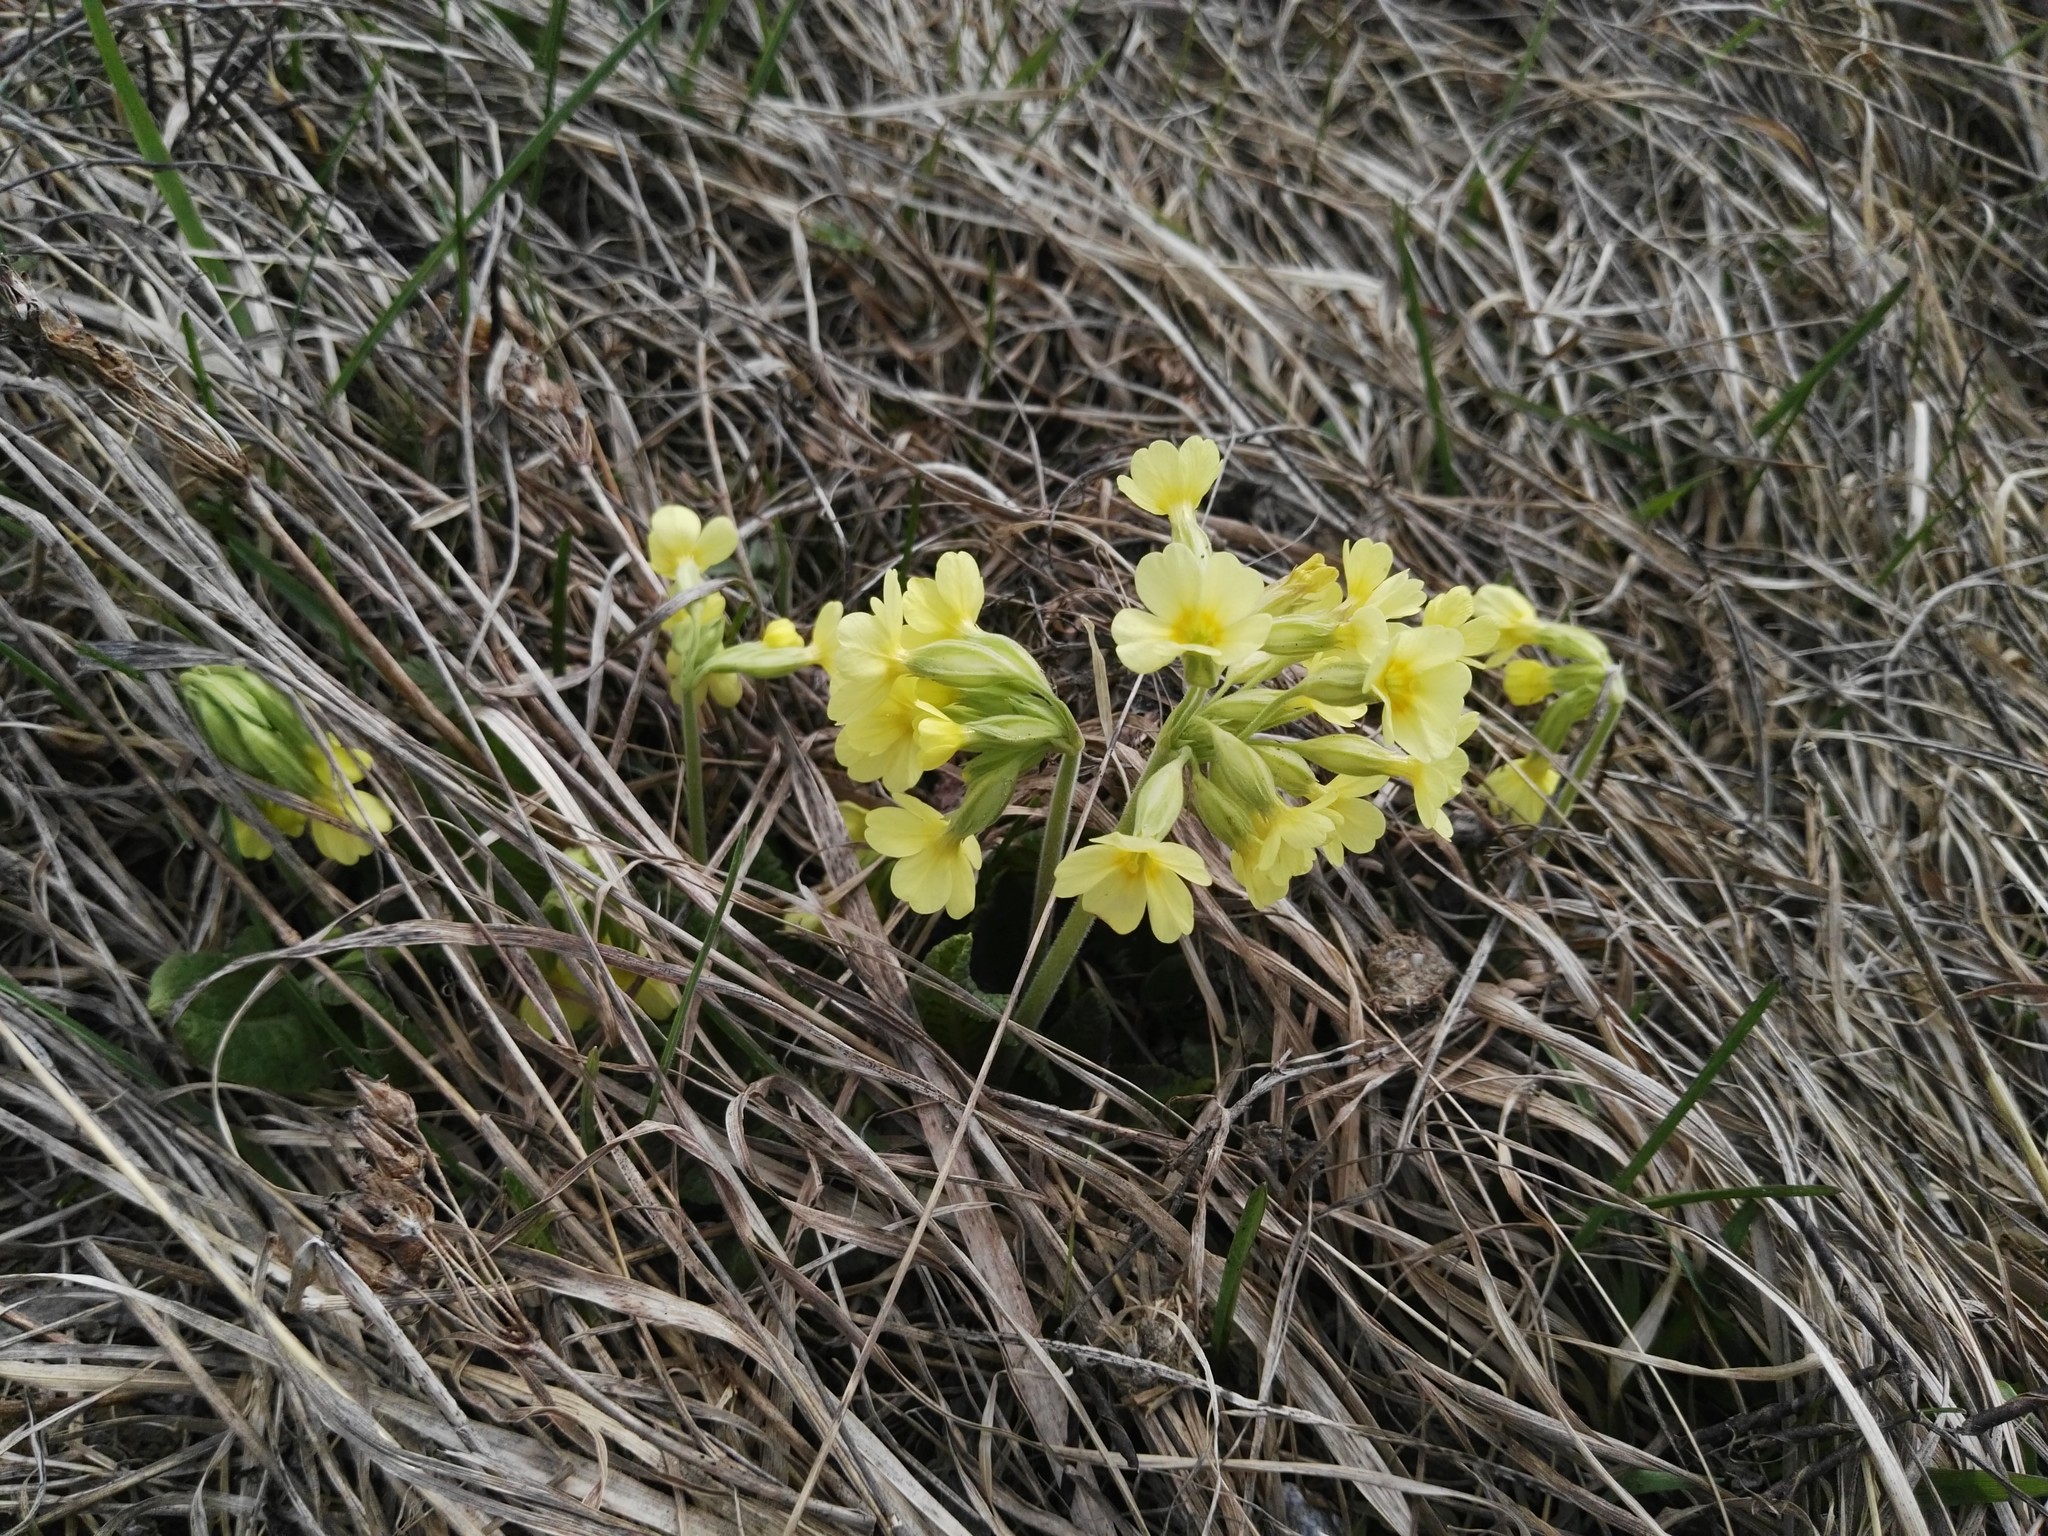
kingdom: Plantae
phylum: Tracheophyta
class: Magnoliopsida
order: Ericales
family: Primulaceae
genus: Primula
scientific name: Primula elatior
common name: Oxlip
